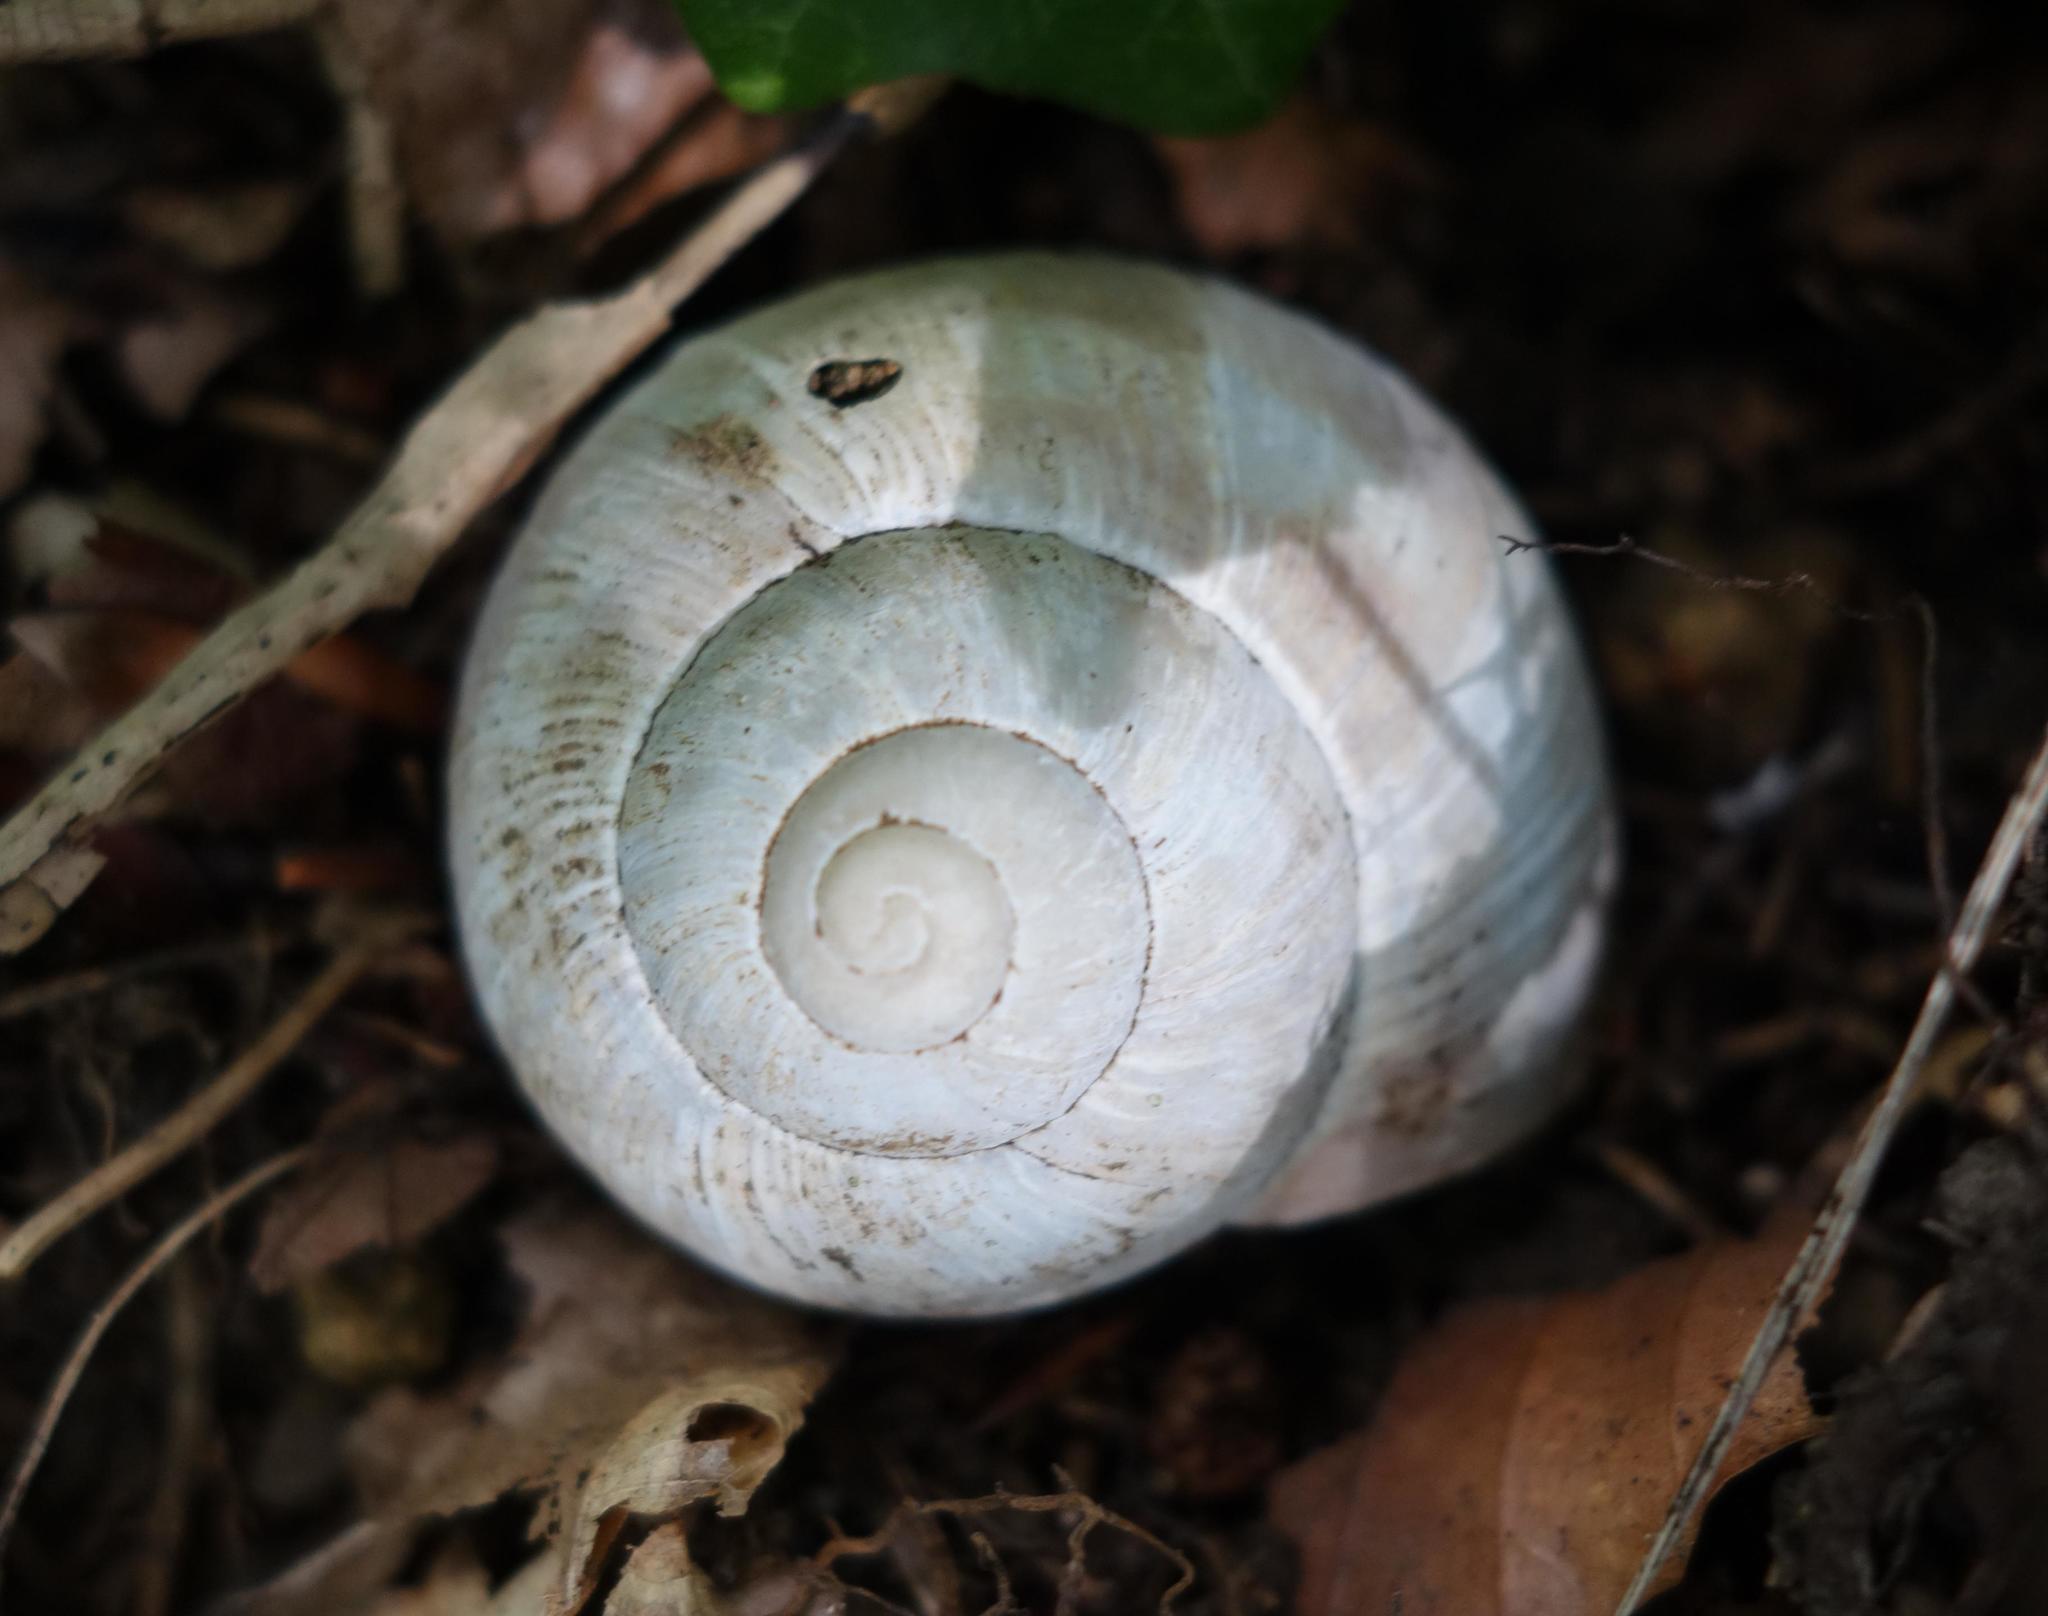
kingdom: Animalia
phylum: Mollusca
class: Gastropoda
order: Stylommatophora
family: Helicidae
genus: Helix
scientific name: Helix pomatia
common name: Roman snail
